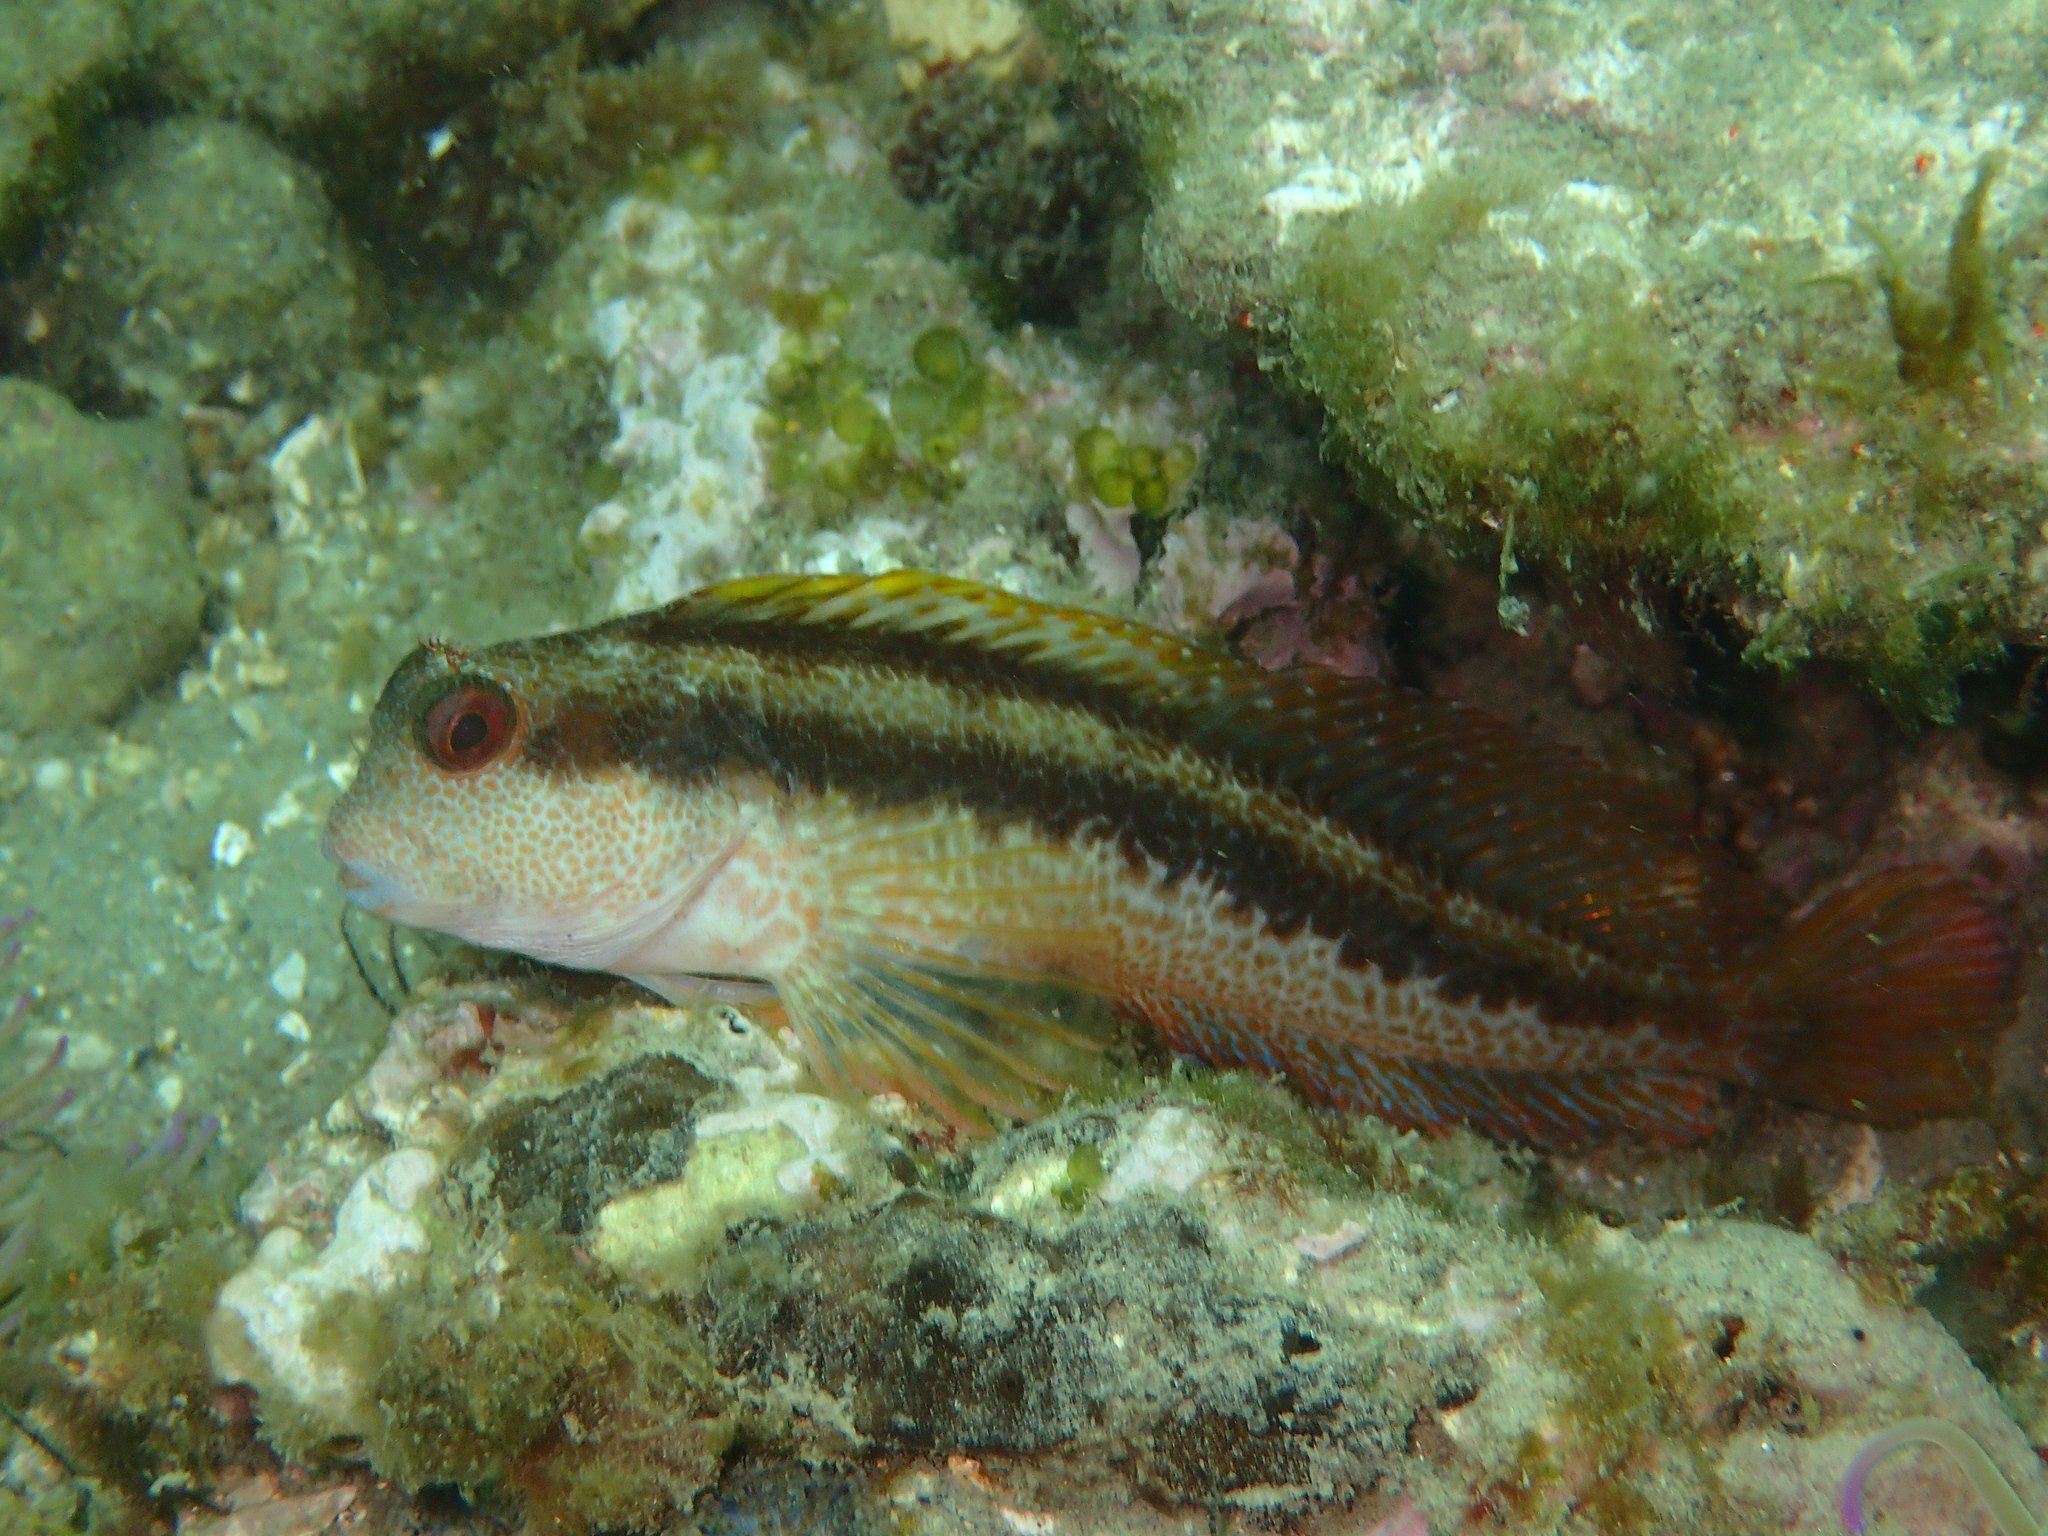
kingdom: Animalia
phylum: Chordata
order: Perciformes
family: Blenniidae
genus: Parablennius
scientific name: Parablennius pilicornis
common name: Ringneck blenny
